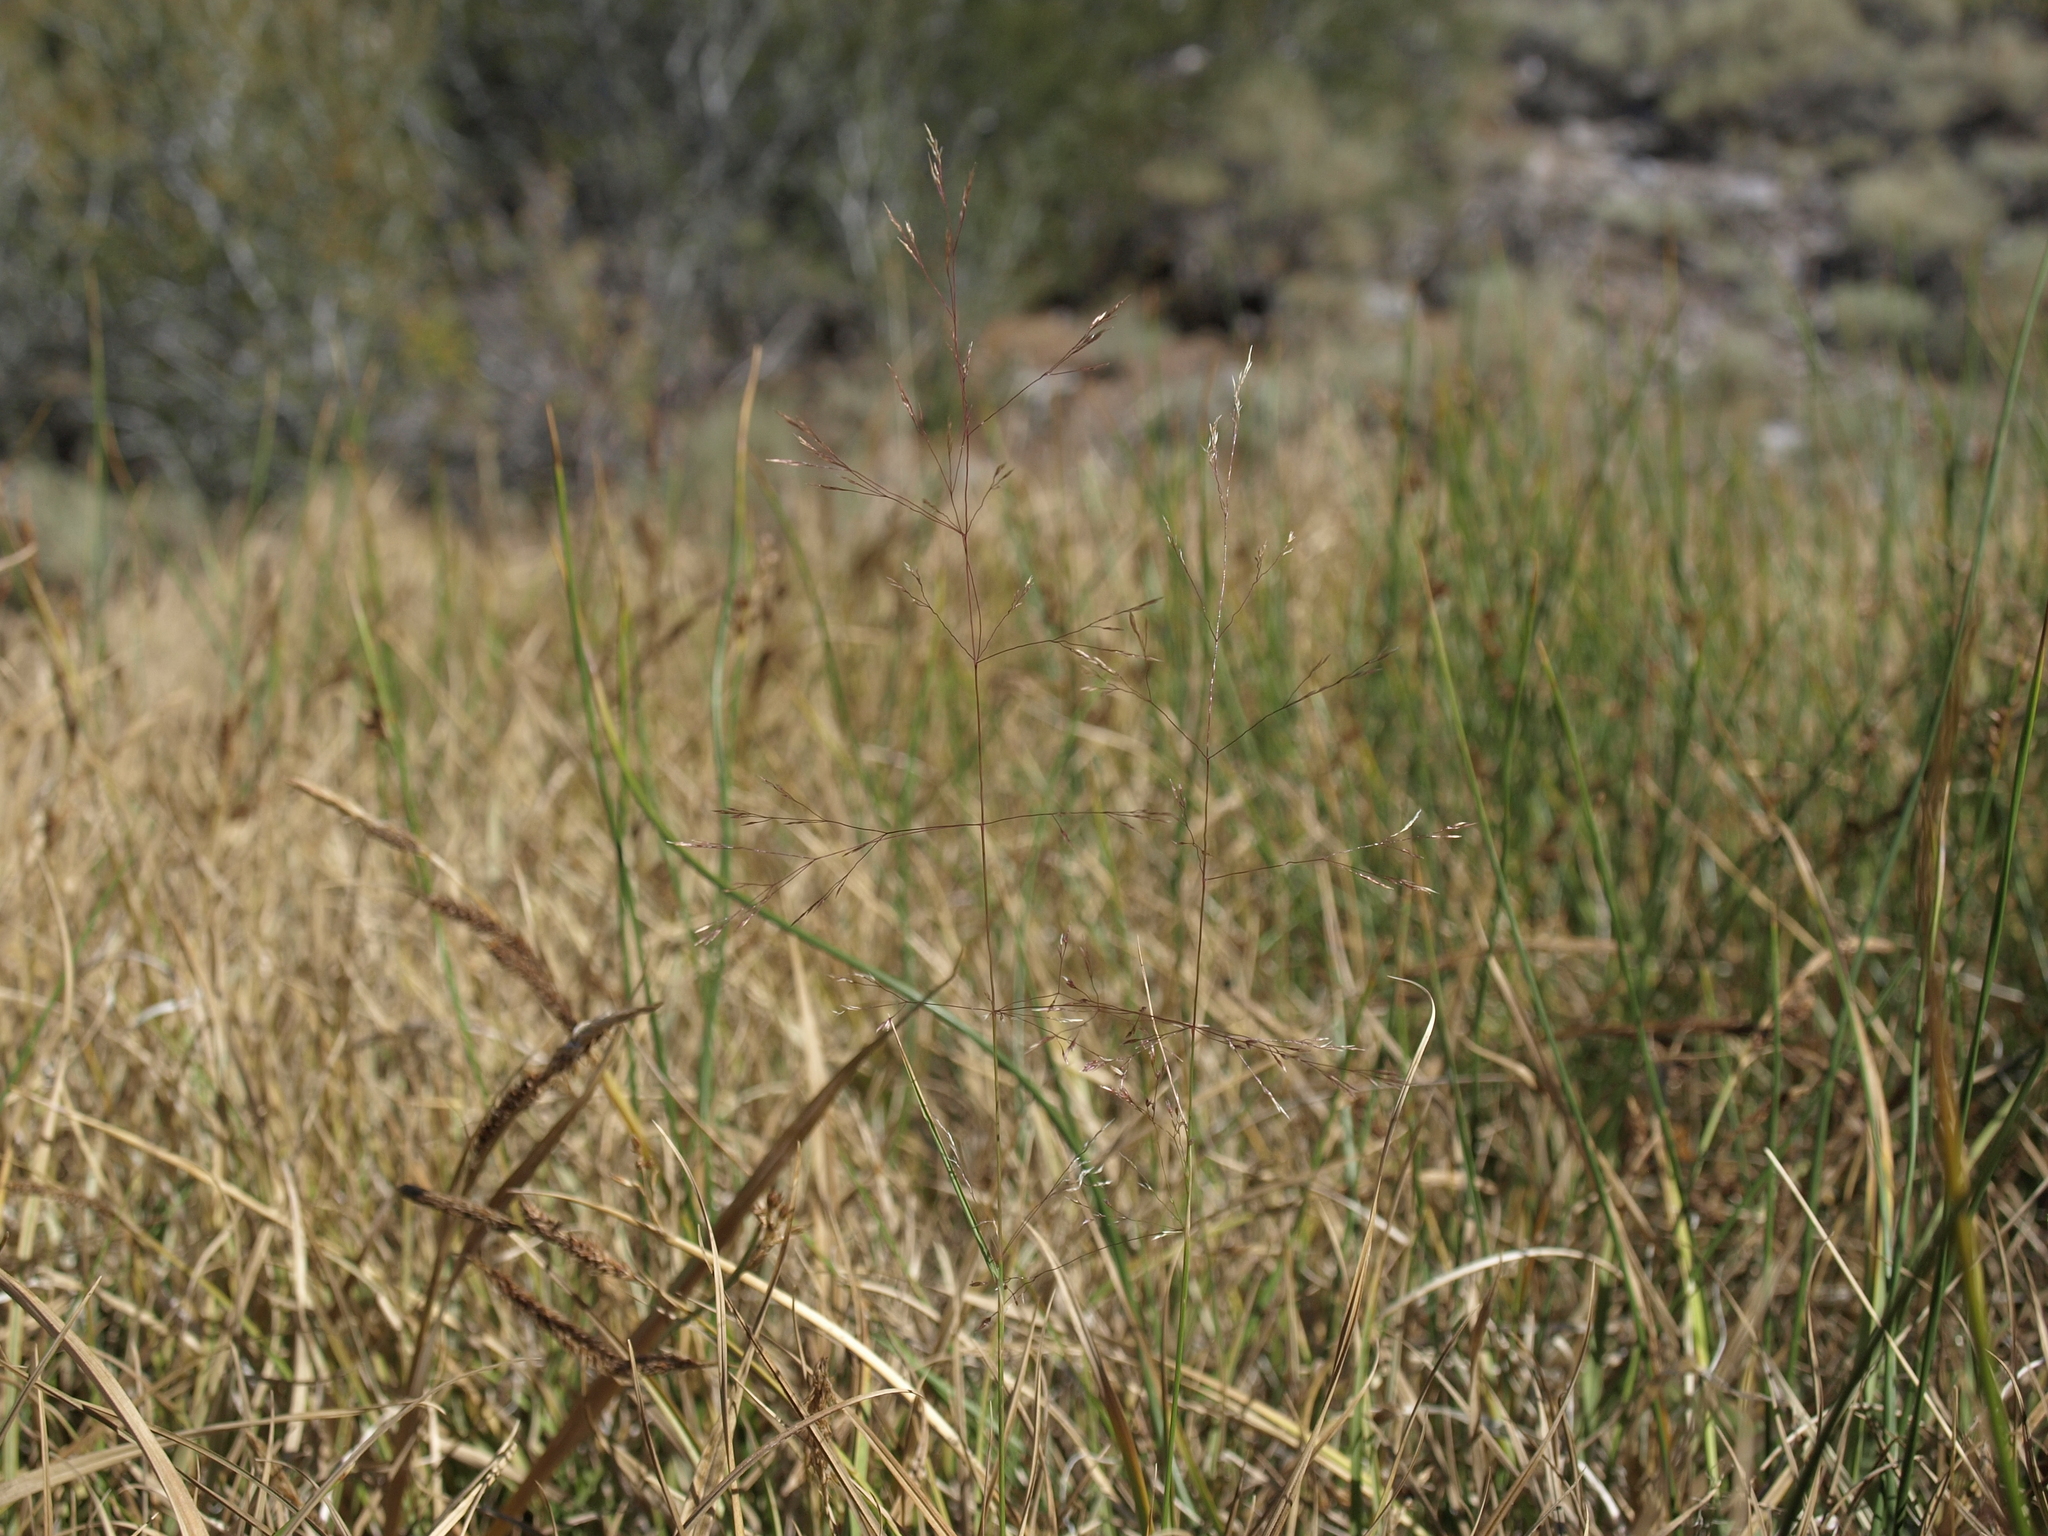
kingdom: Plantae
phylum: Tracheophyta
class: Liliopsida
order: Poales
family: Poaceae
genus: Agrostis
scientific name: Agrostis scabra
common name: Rough bent
